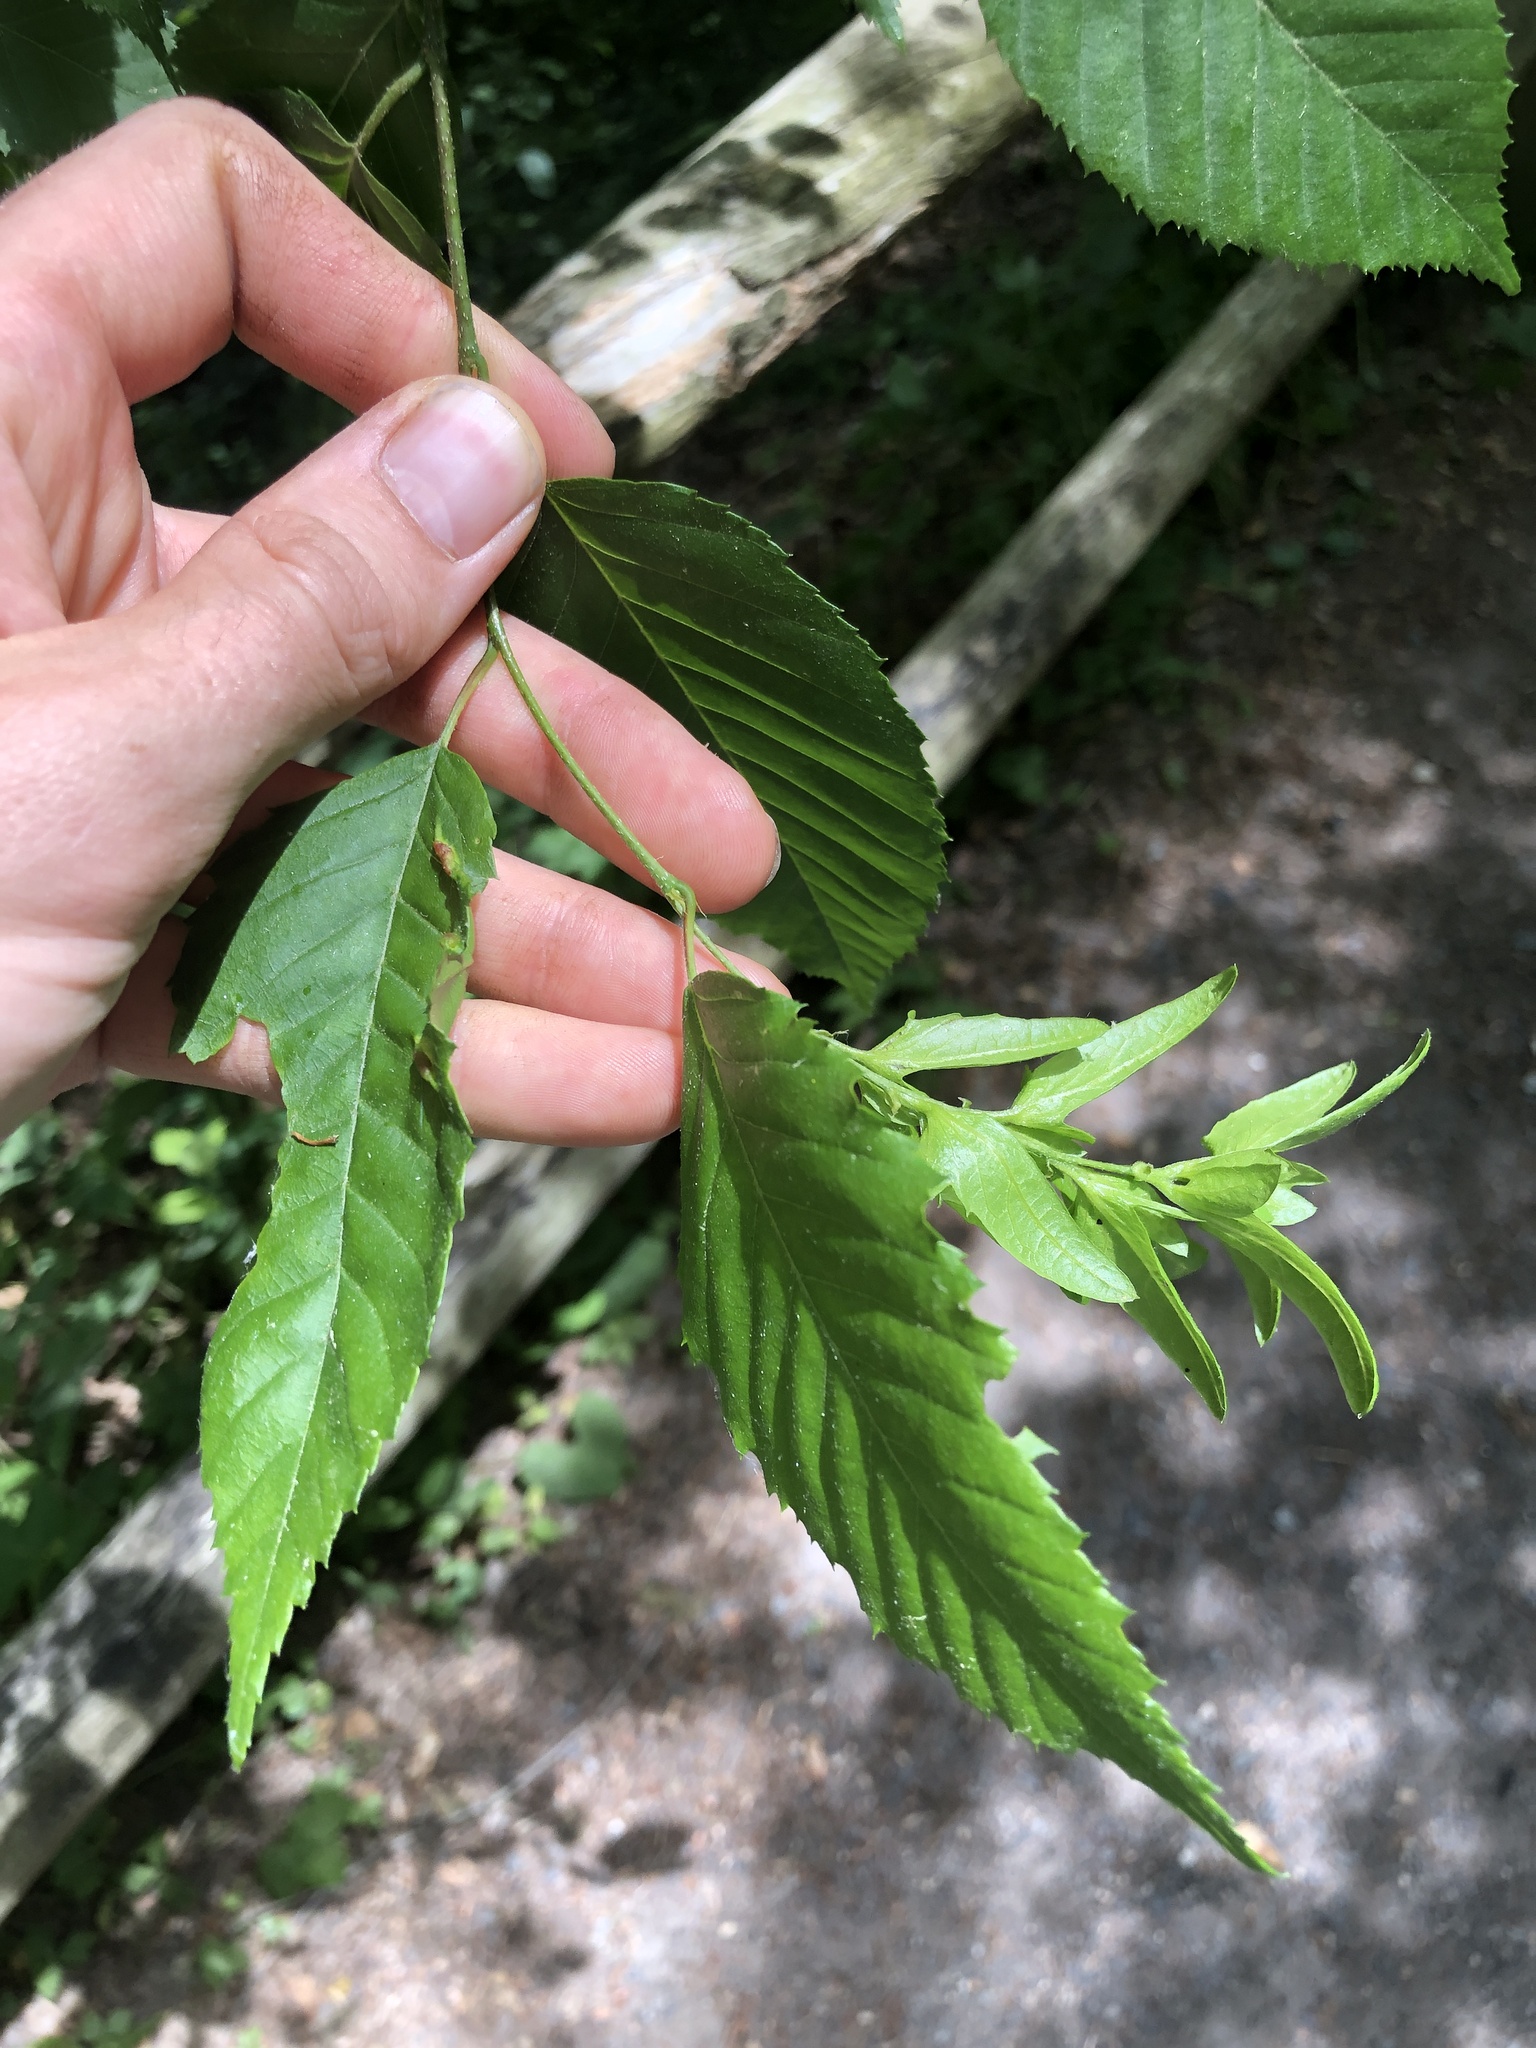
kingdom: Plantae
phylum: Tracheophyta
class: Magnoliopsida
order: Fagales
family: Betulaceae
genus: Carpinus
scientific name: Carpinus caroliniana
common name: American hornbeam
